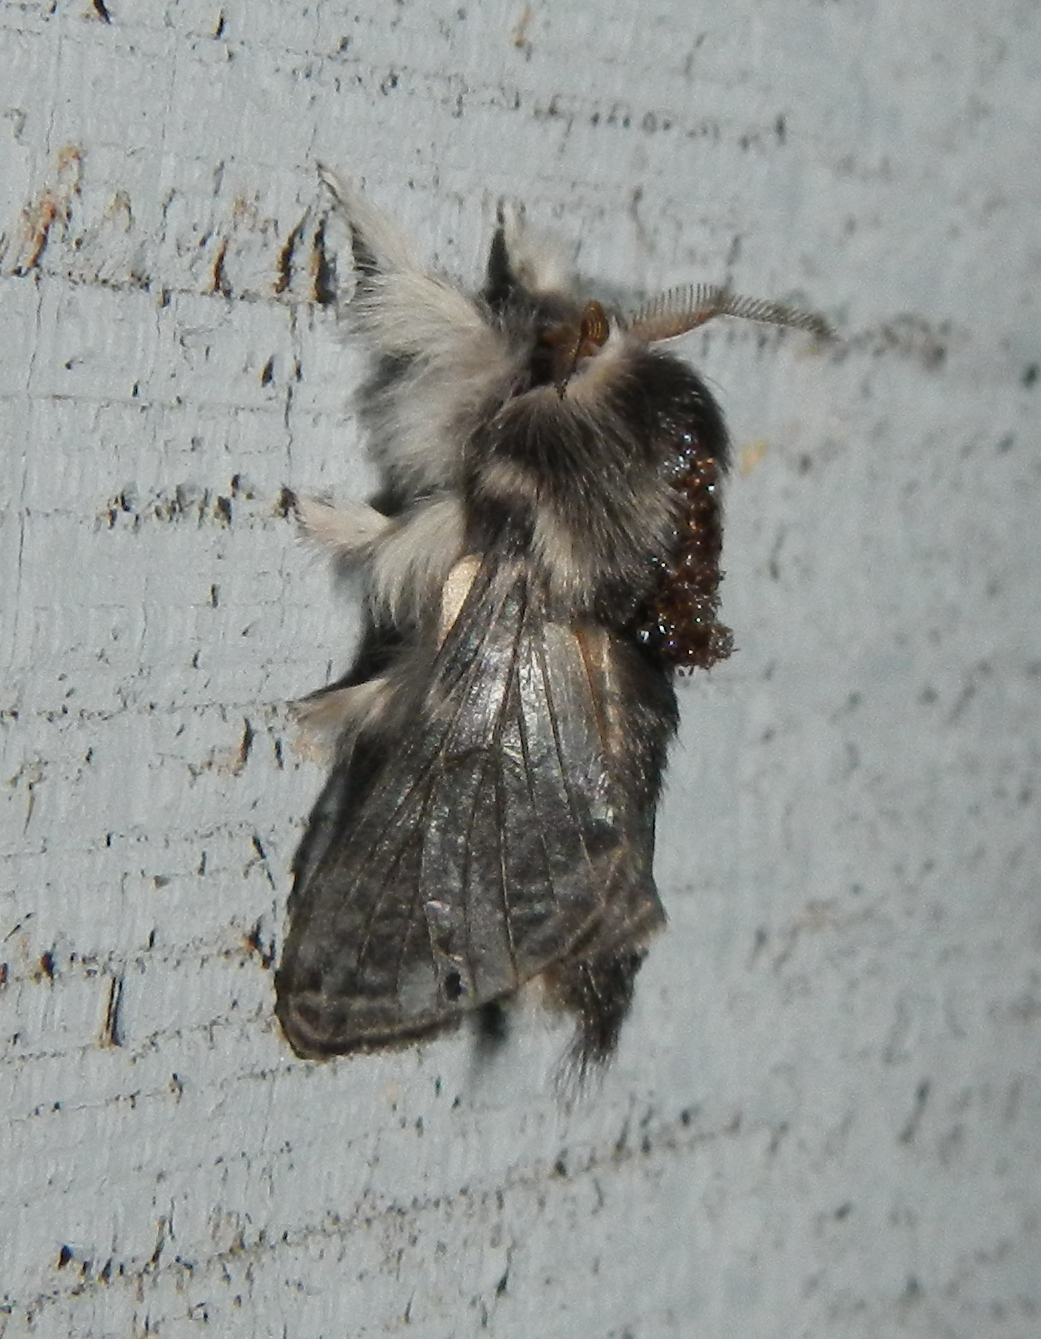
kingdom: Animalia
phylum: Arthropoda
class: Insecta
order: Lepidoptera
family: Lasiocampidae
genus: Tolype
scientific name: Tolype laricis
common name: Larch tolype moth
